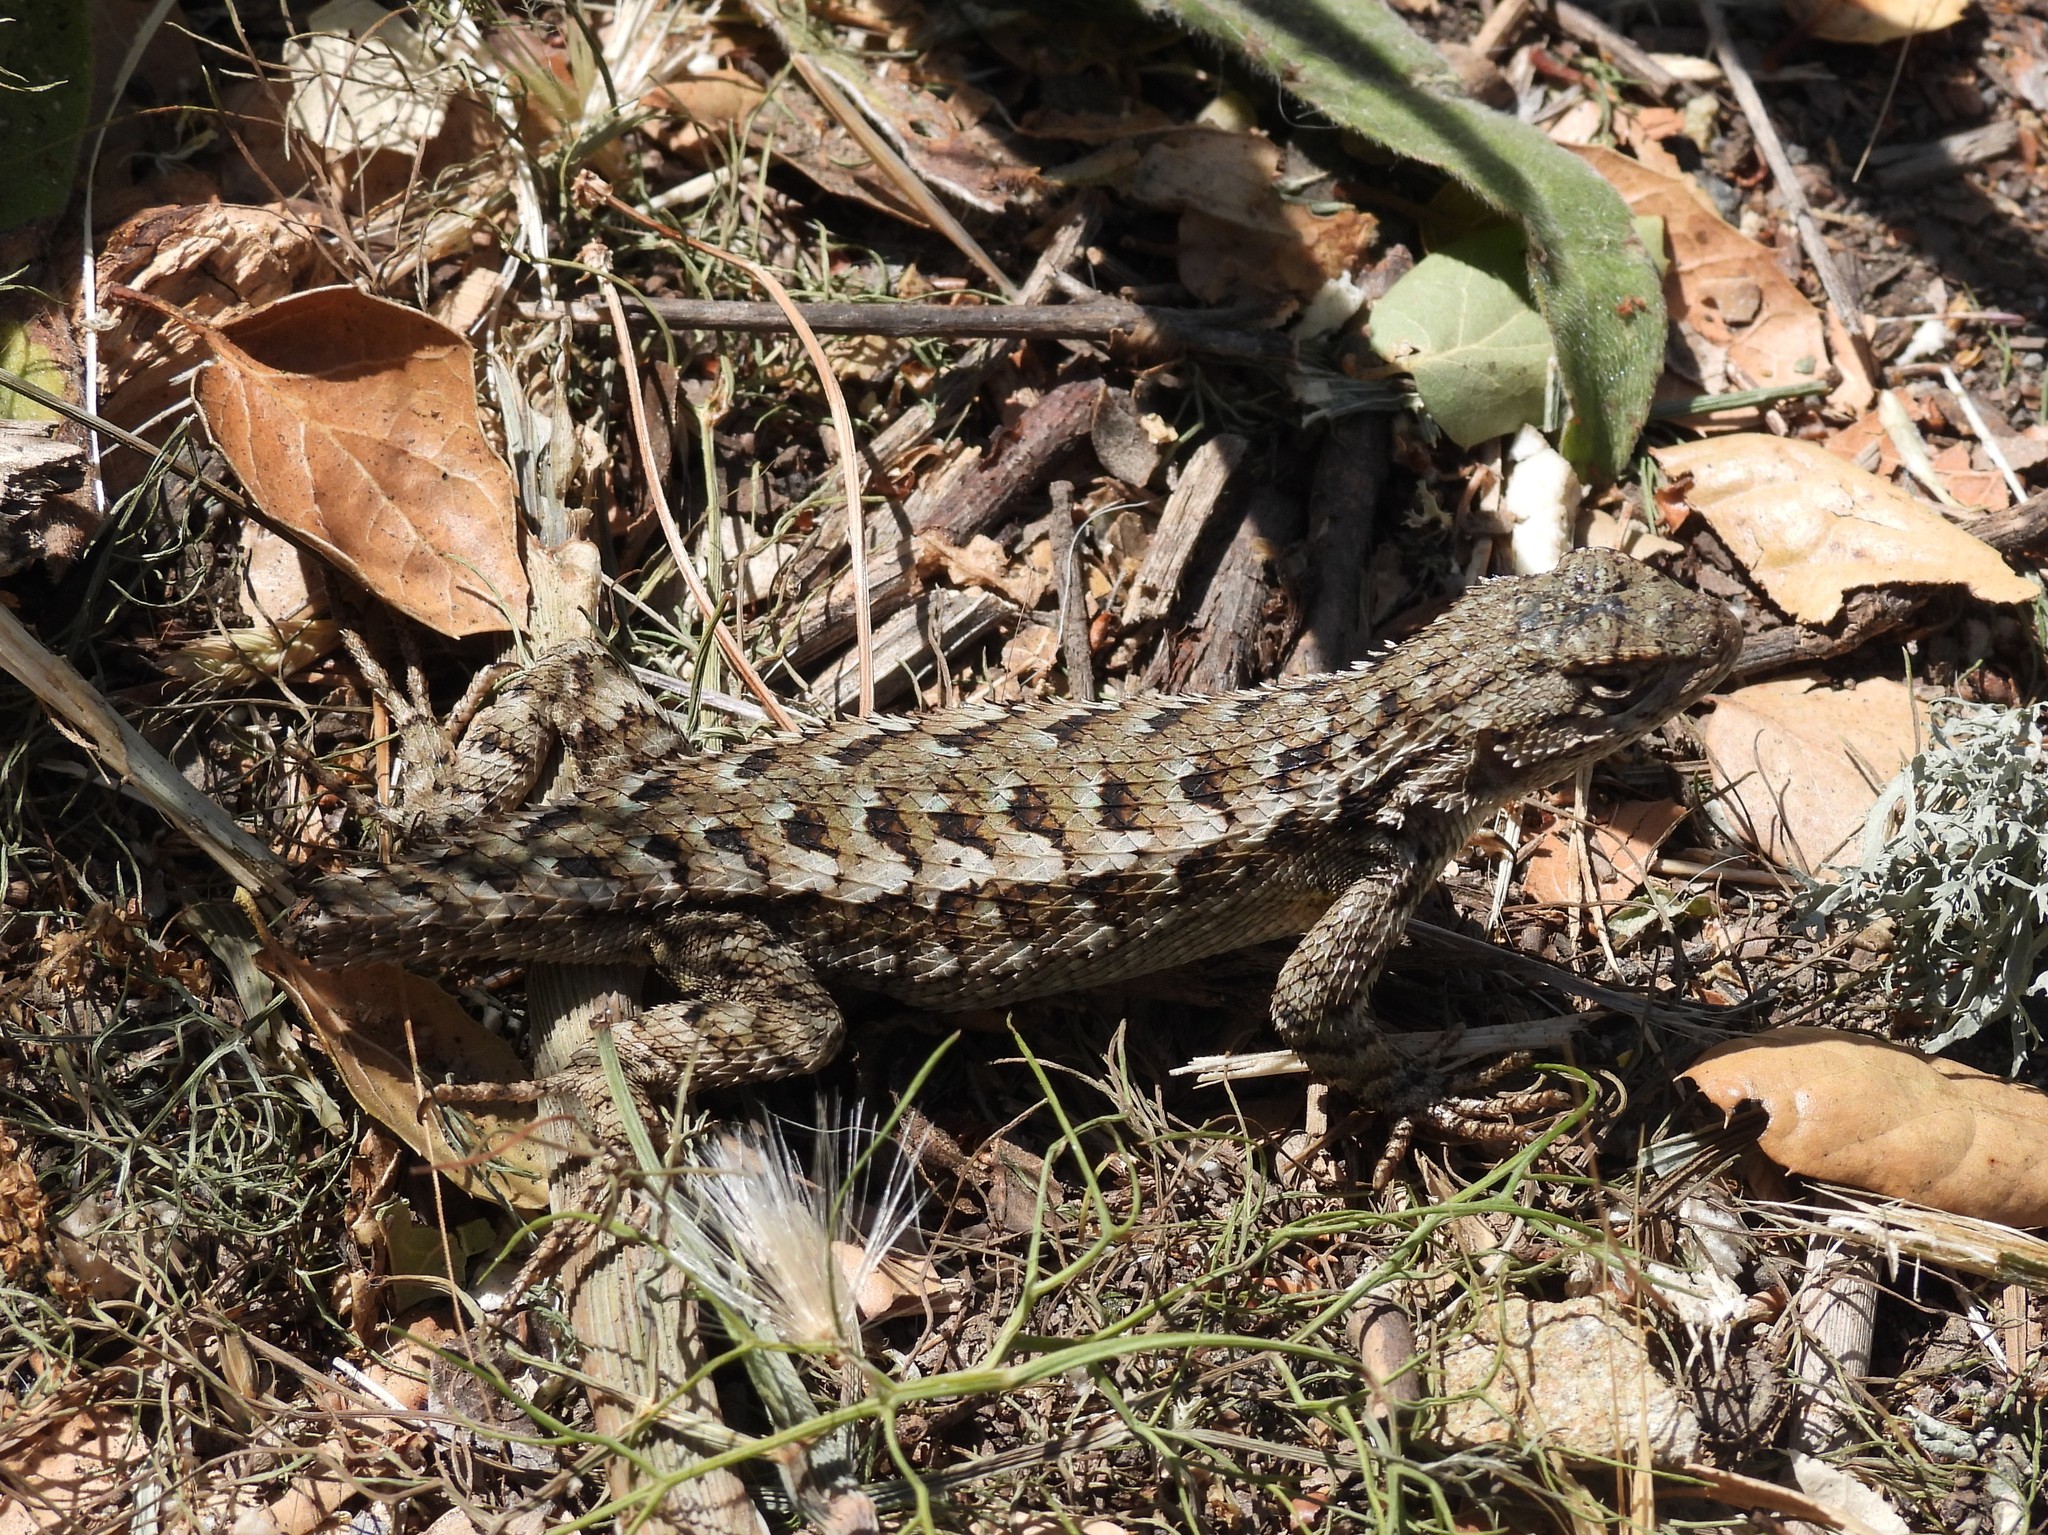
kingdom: Animalia
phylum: Chordata
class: Squamata
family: Phrynosomatidae
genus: Sceloporus
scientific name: Sceloporus occidentalis
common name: Western fence lizard
